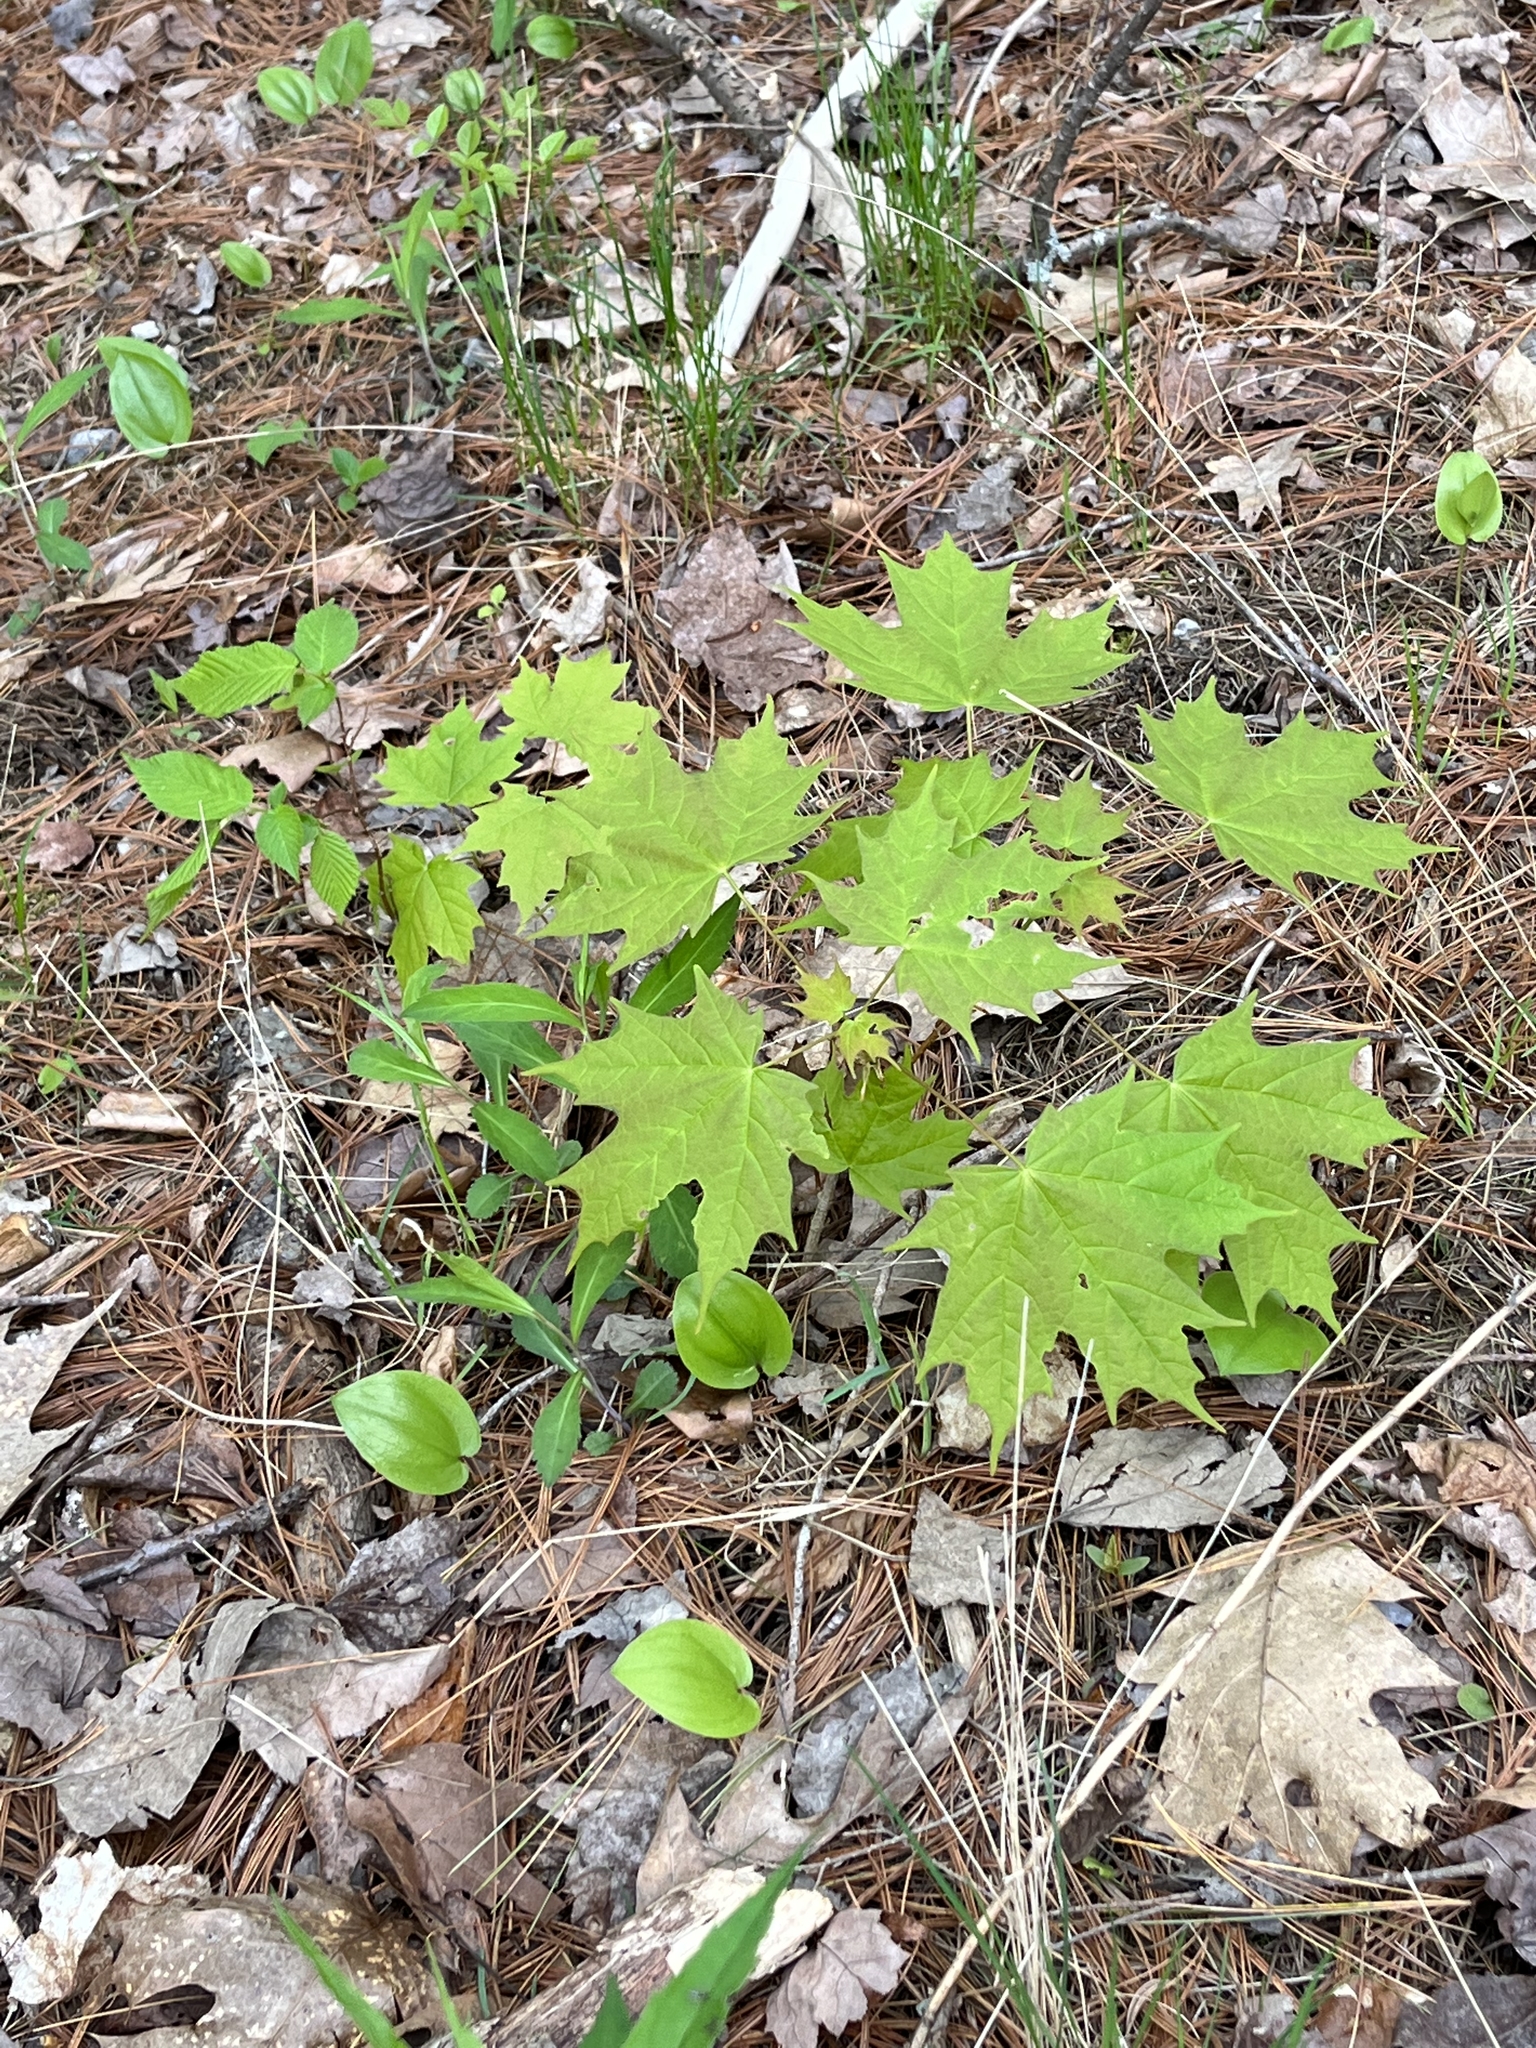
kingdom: Plantae
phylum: Tracheophyta
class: Magnoliopsida
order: Sapindales
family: Sapindaceae
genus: Acer
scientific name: Acer saccharum
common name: Sugar maple
